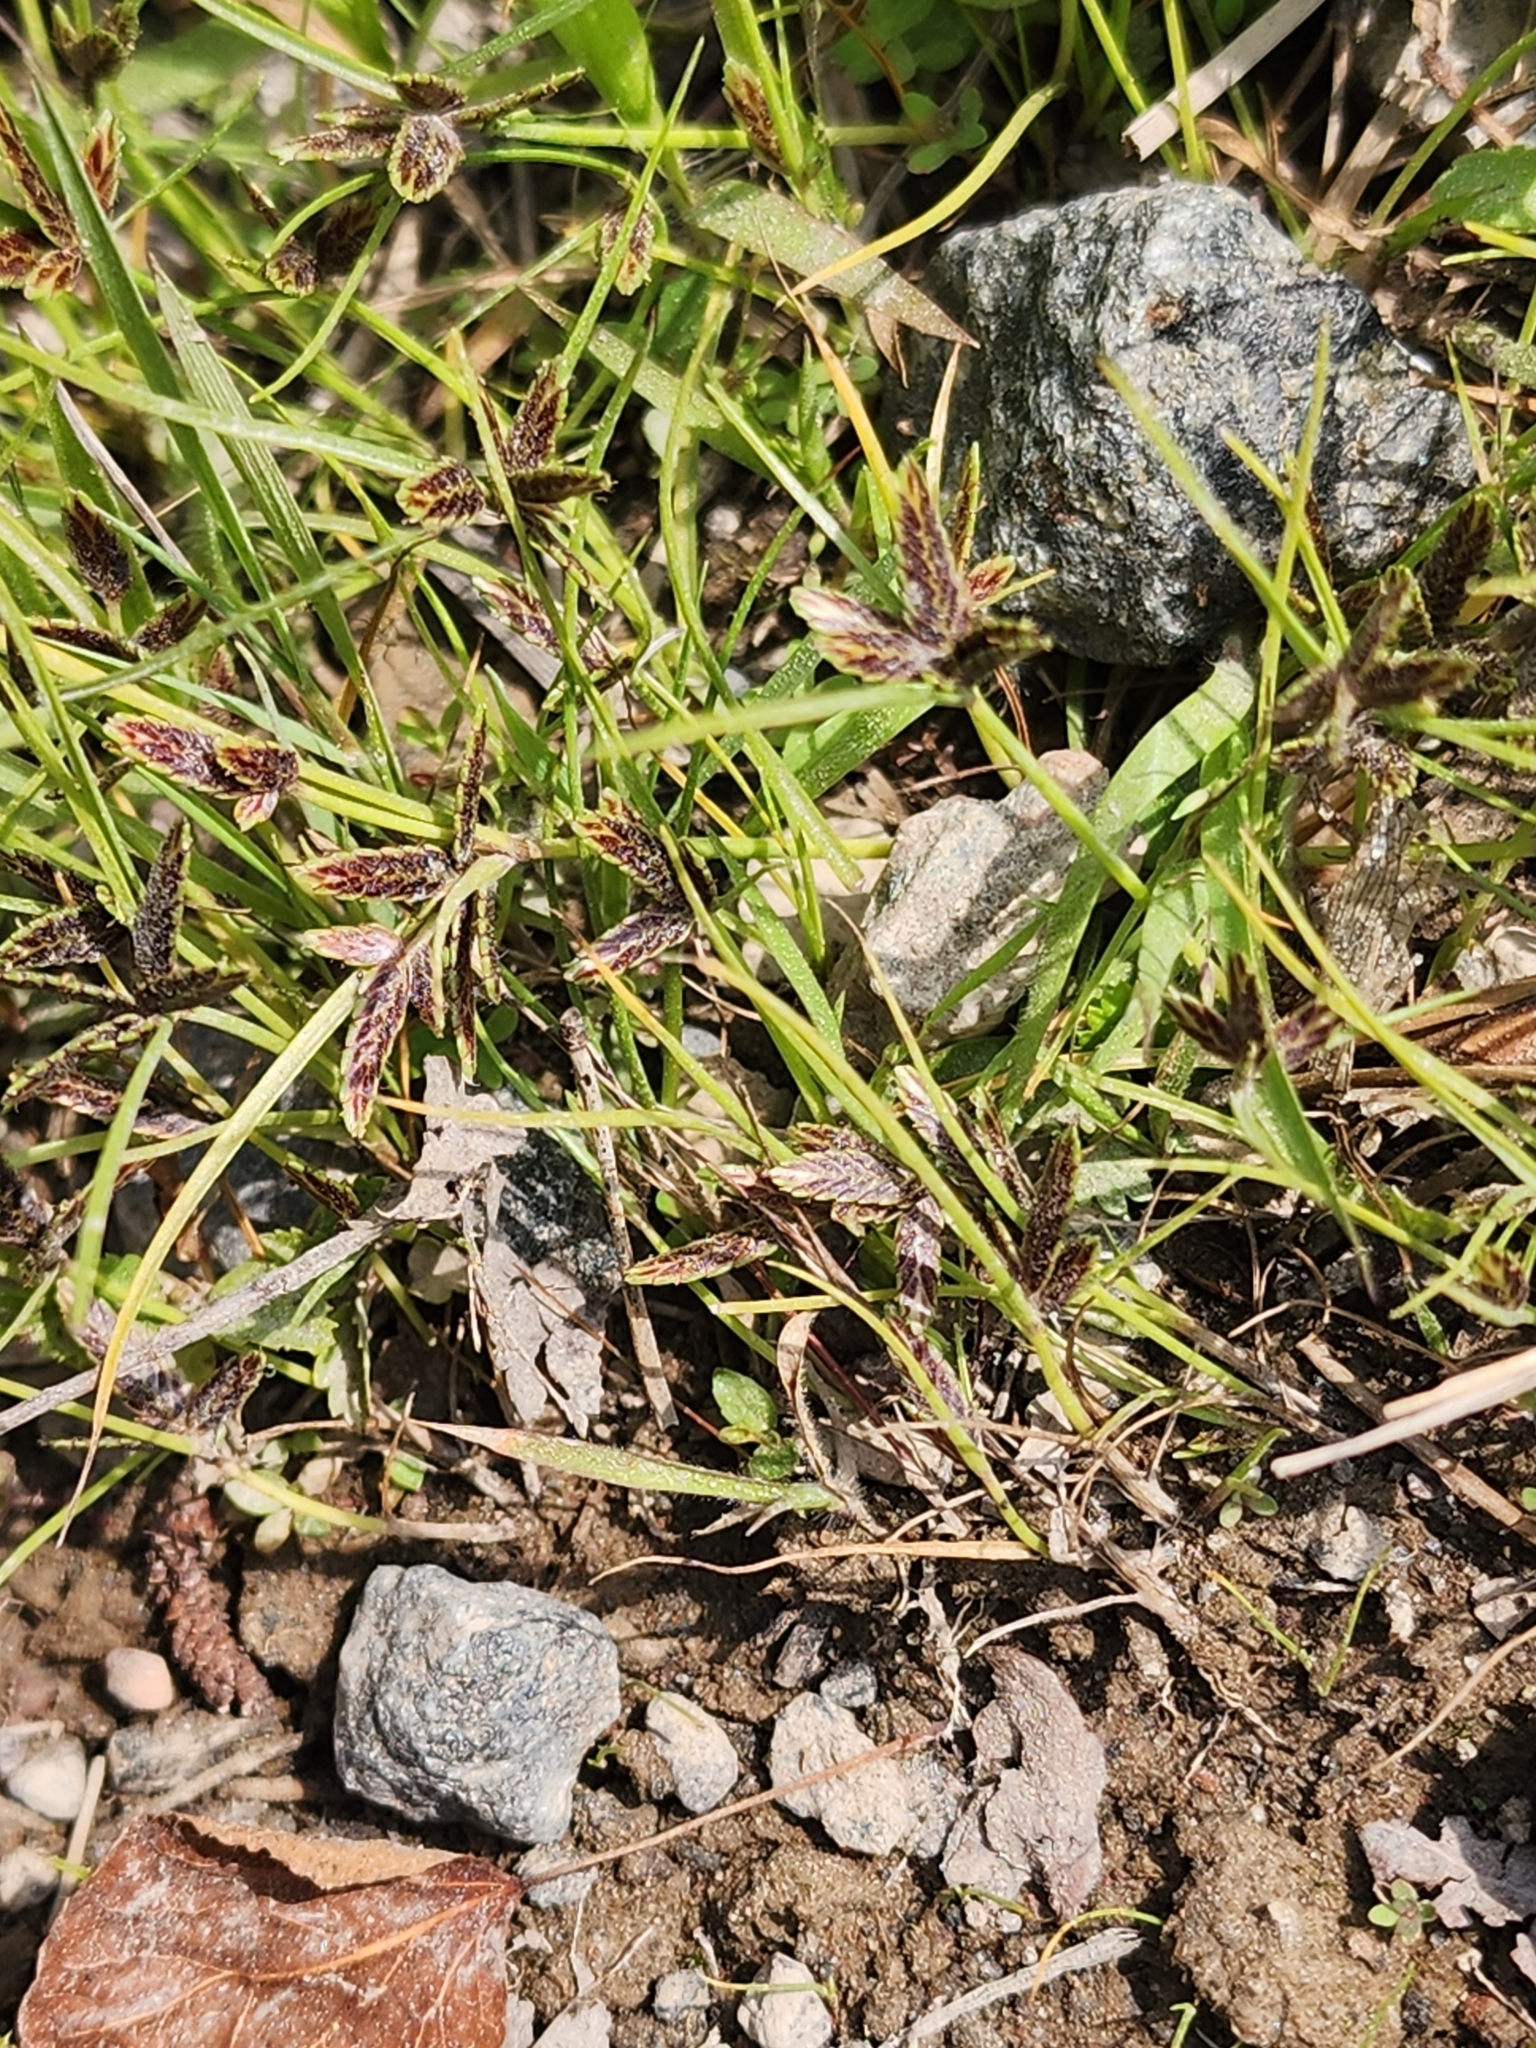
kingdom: Plantae
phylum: Tracheophyta
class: Liliopsida
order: Poales
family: Cyperaceae
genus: Cyperus
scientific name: Cyperus bipartitus
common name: Brook flatsedge
